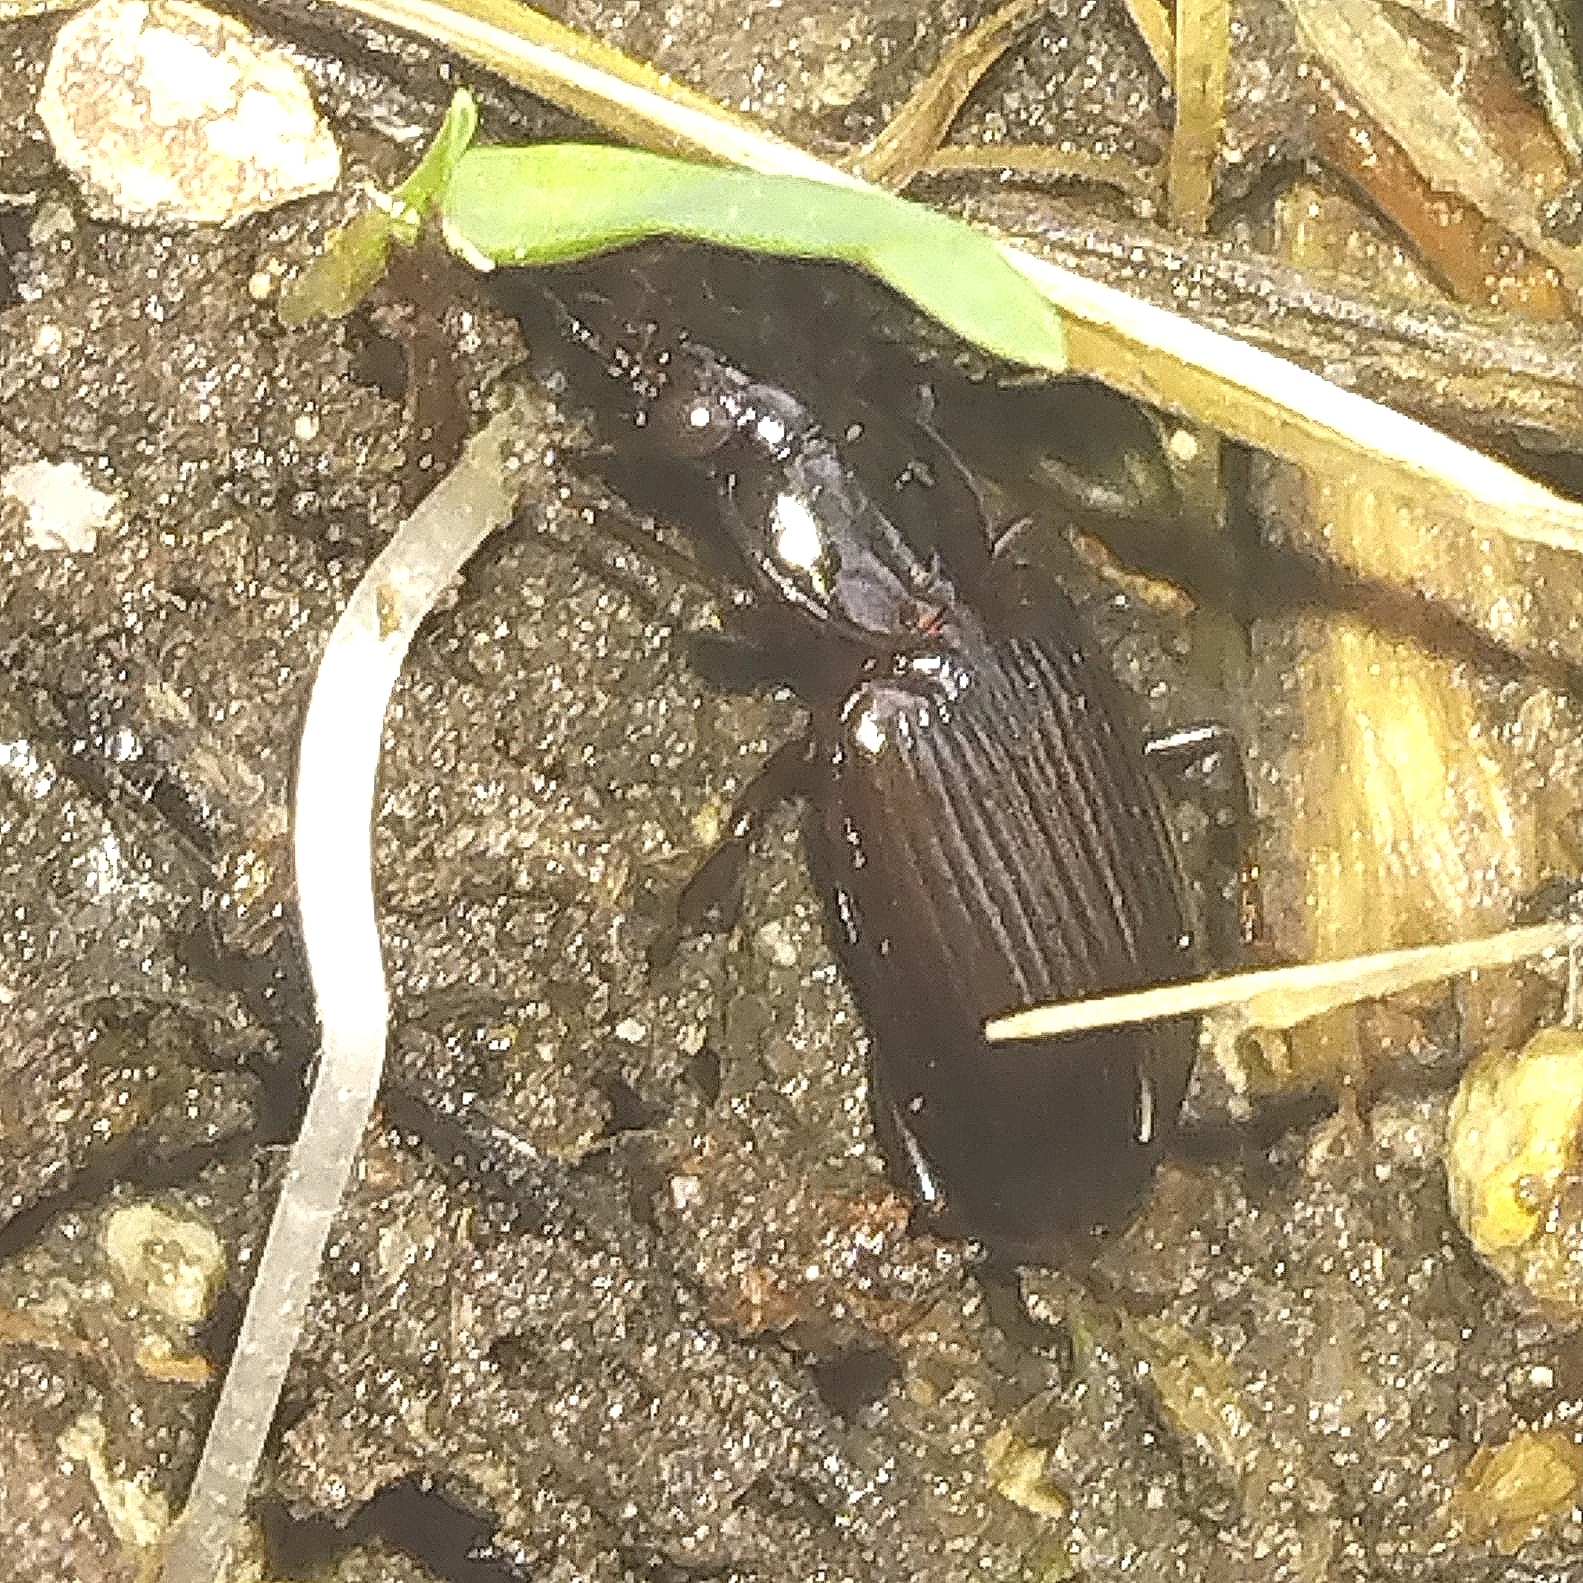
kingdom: Animalia
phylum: Arthropoda
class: Insecta
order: Coleoptera
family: Carabidae
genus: Agonum
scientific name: Agonum punctiforme
